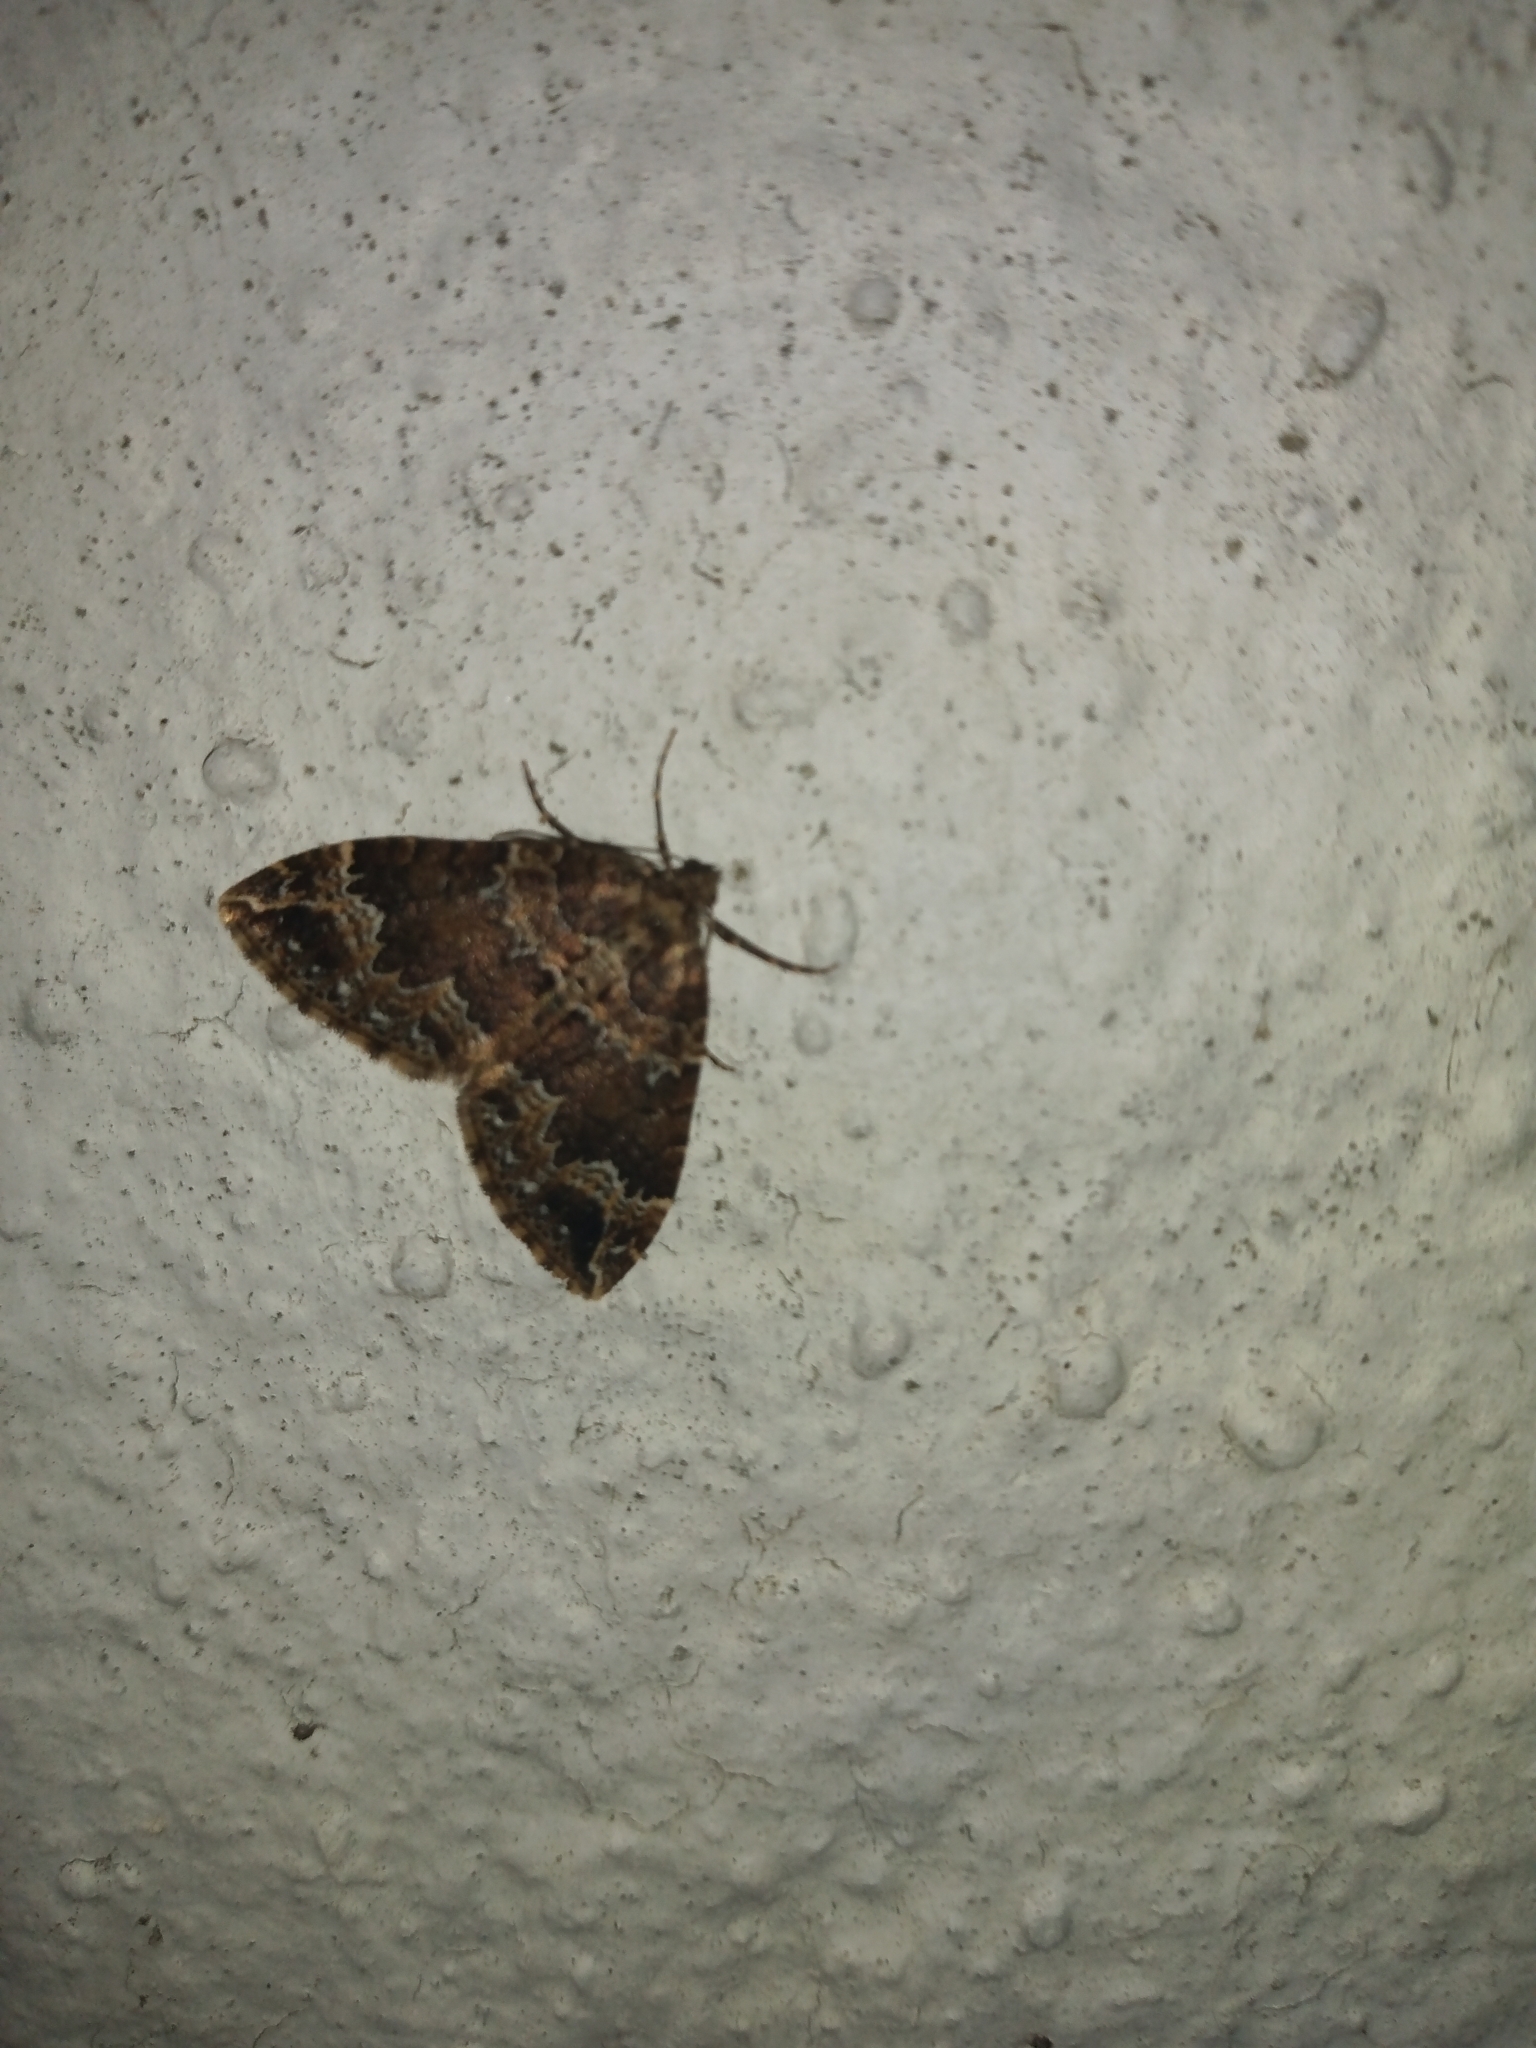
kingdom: Animalia
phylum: Arthropoda
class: Insecta
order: Lepidoptera
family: Geometridae
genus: Lampropteryx
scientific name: Lampropteryx suffumata
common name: Water carpet
